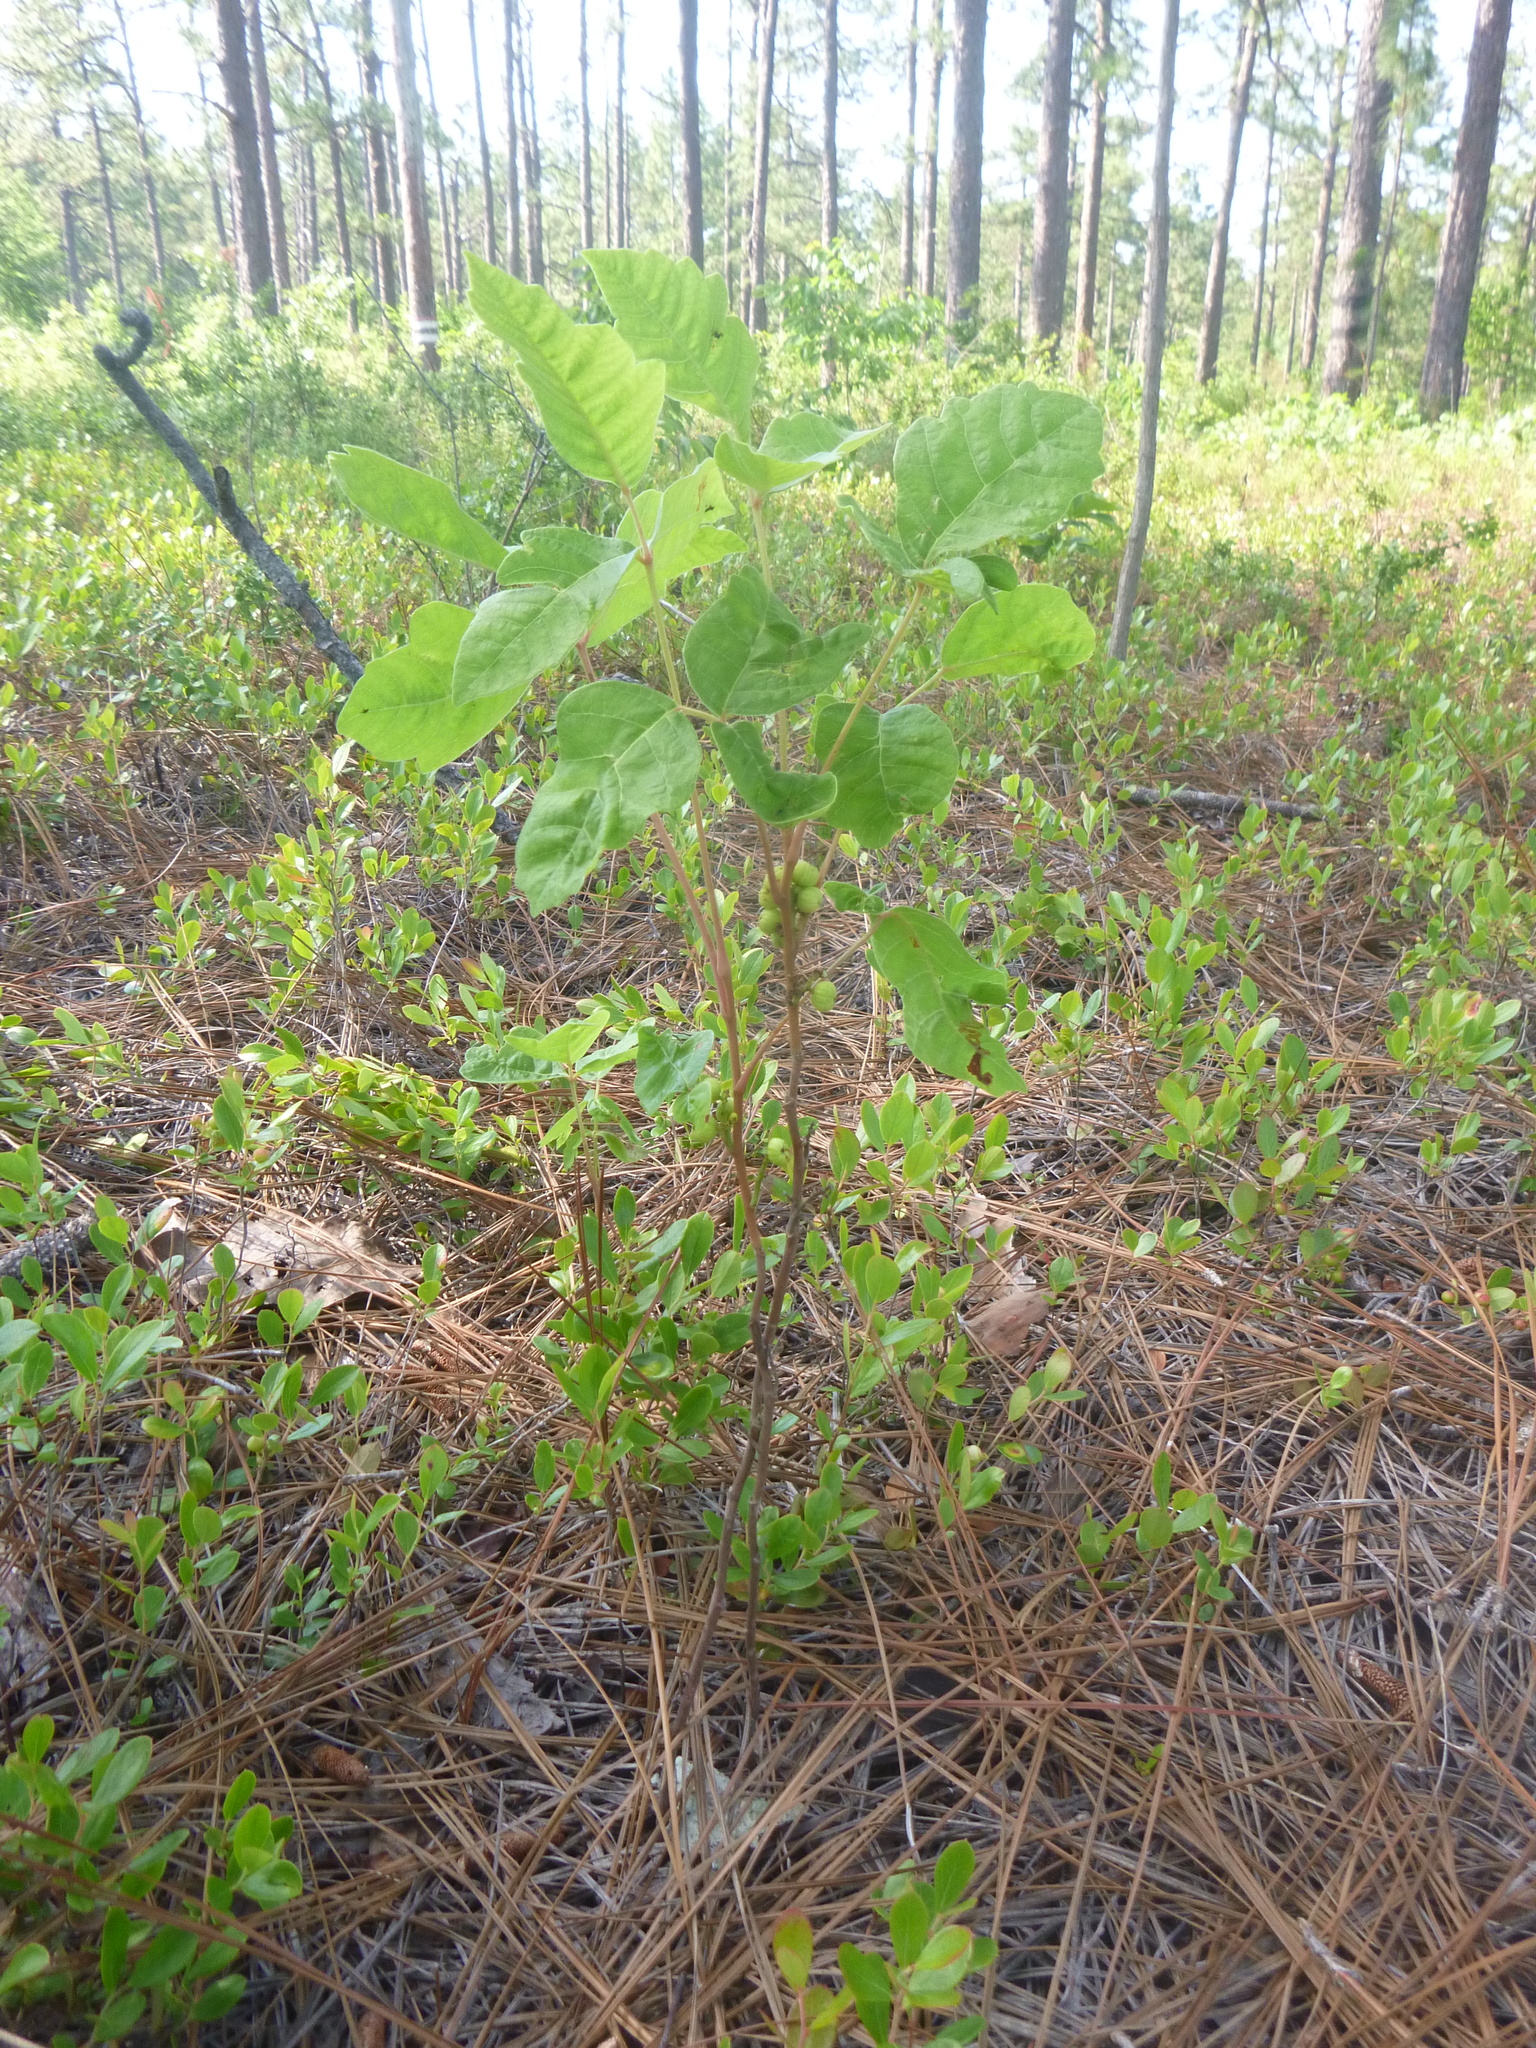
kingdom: Plantae
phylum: Tracheophyta
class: Magnoliopsida
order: Sapindales
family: Anacardiaceae
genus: Toxicodendron
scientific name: Toxicodendron pubescens
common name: Eastern poison-oak
